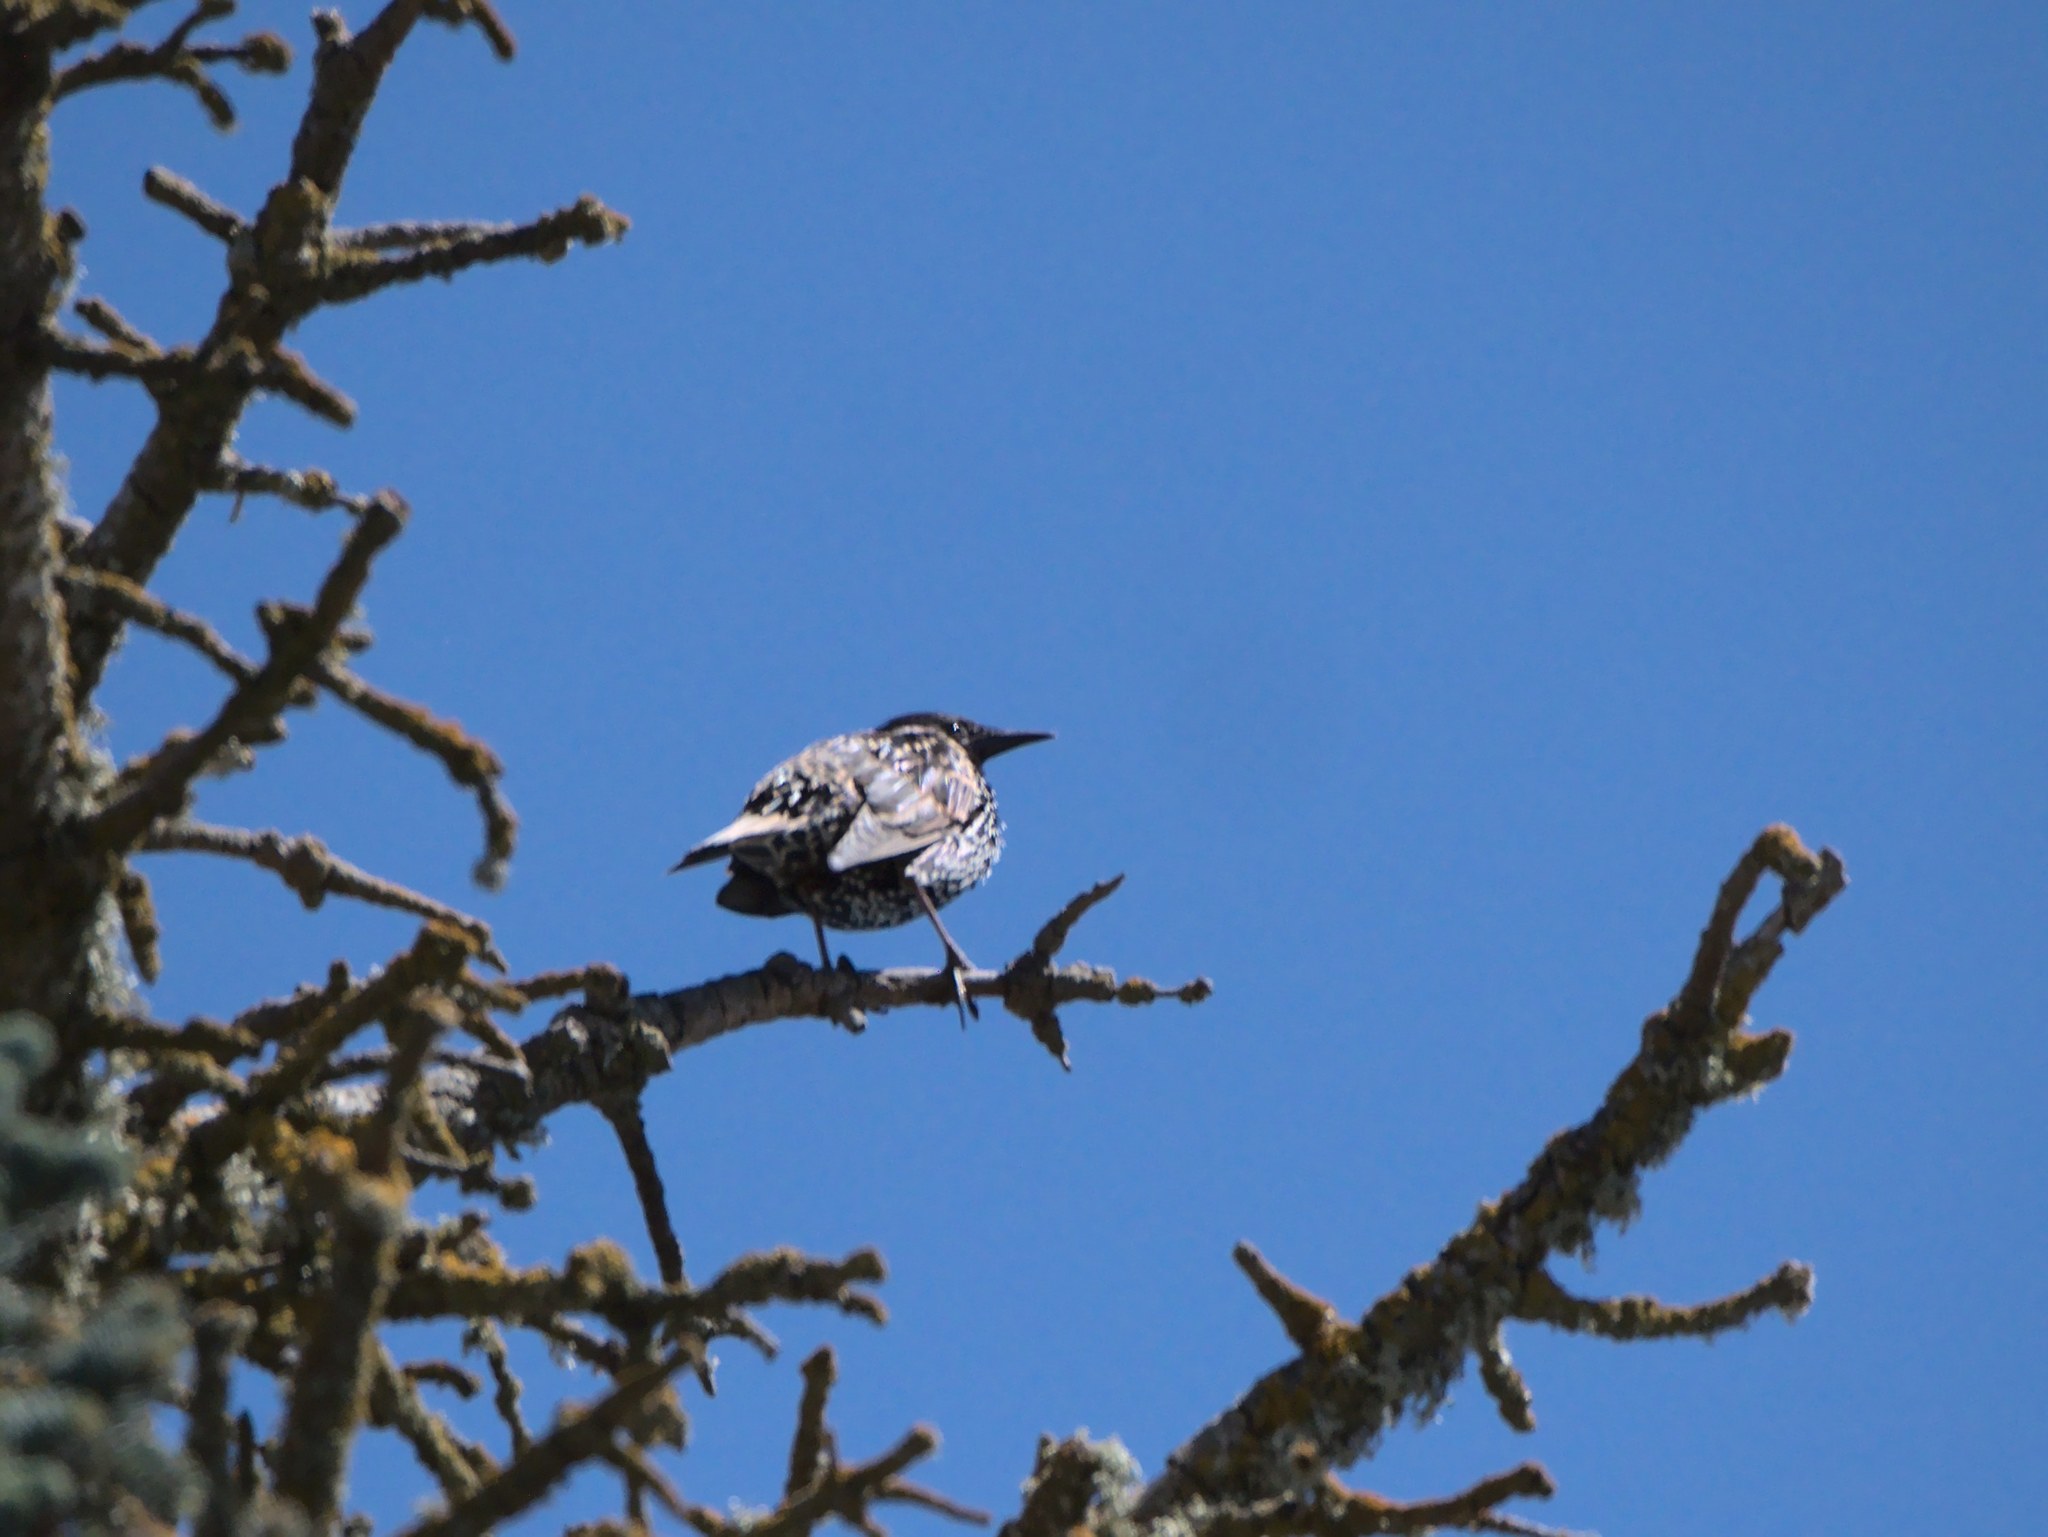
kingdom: Animalia
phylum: Chordata
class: Aves
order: Passeriformes
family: Sturnidae
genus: Sturnus
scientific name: Sturnus vulgaris
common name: Common starling
